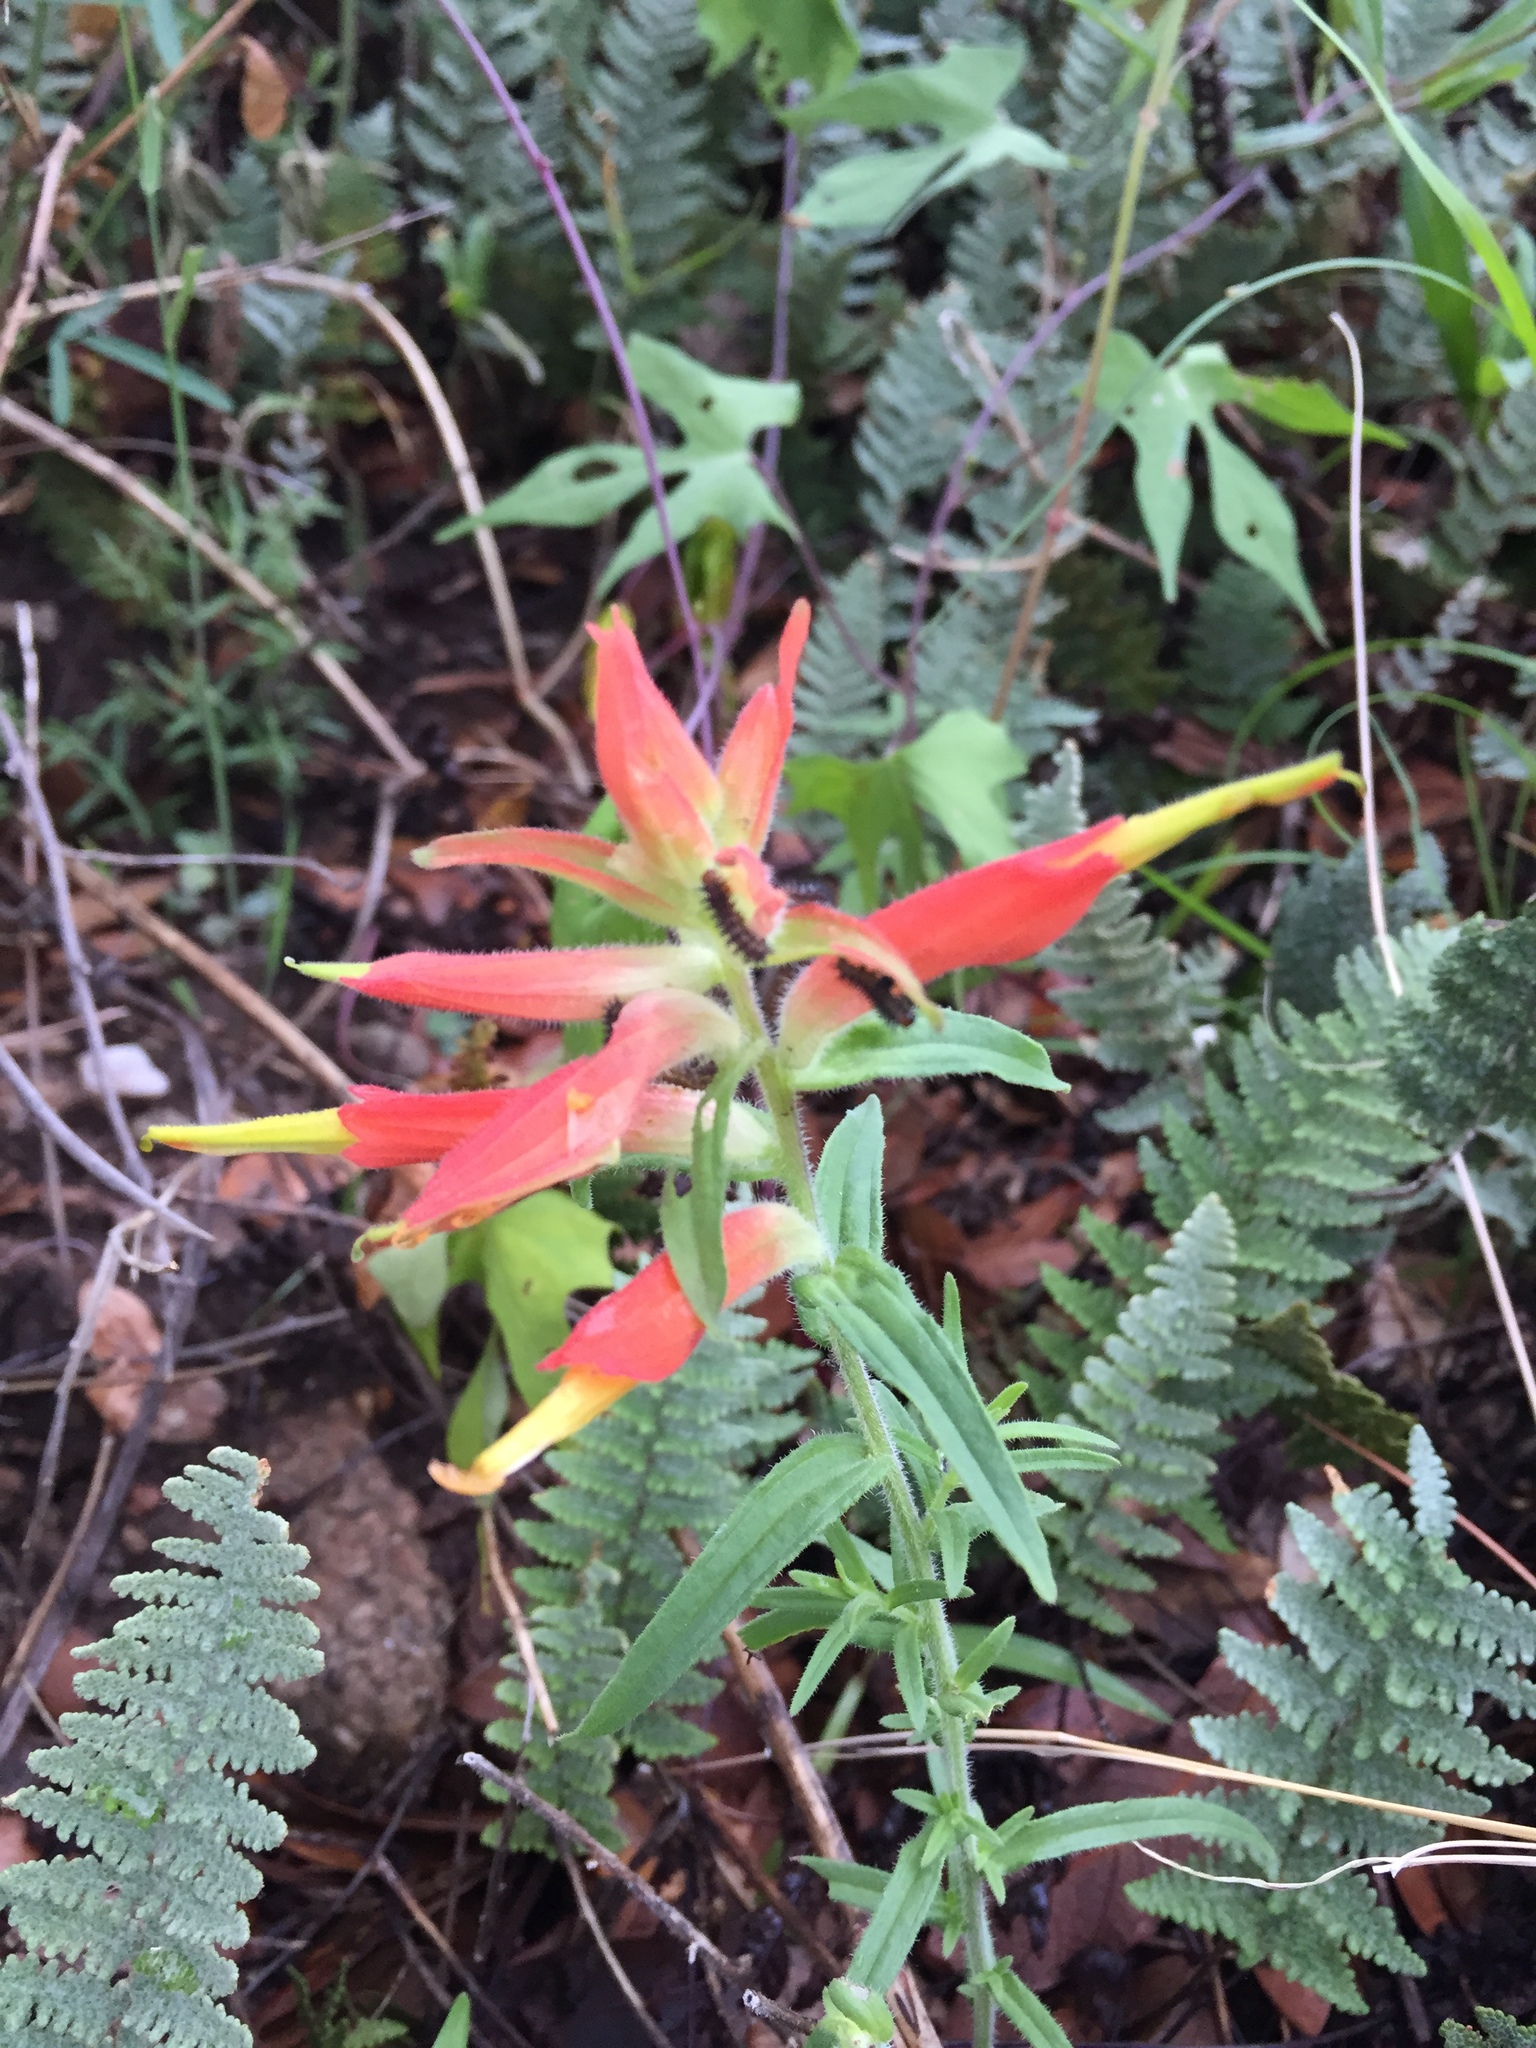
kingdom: Plantae
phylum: Tracheophyta
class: Magnoliopsida
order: Lamiales
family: Orobanchaceae
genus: Castilleja
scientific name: Castilleja tenuiflora
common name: Santa catalina indian paintbrush
